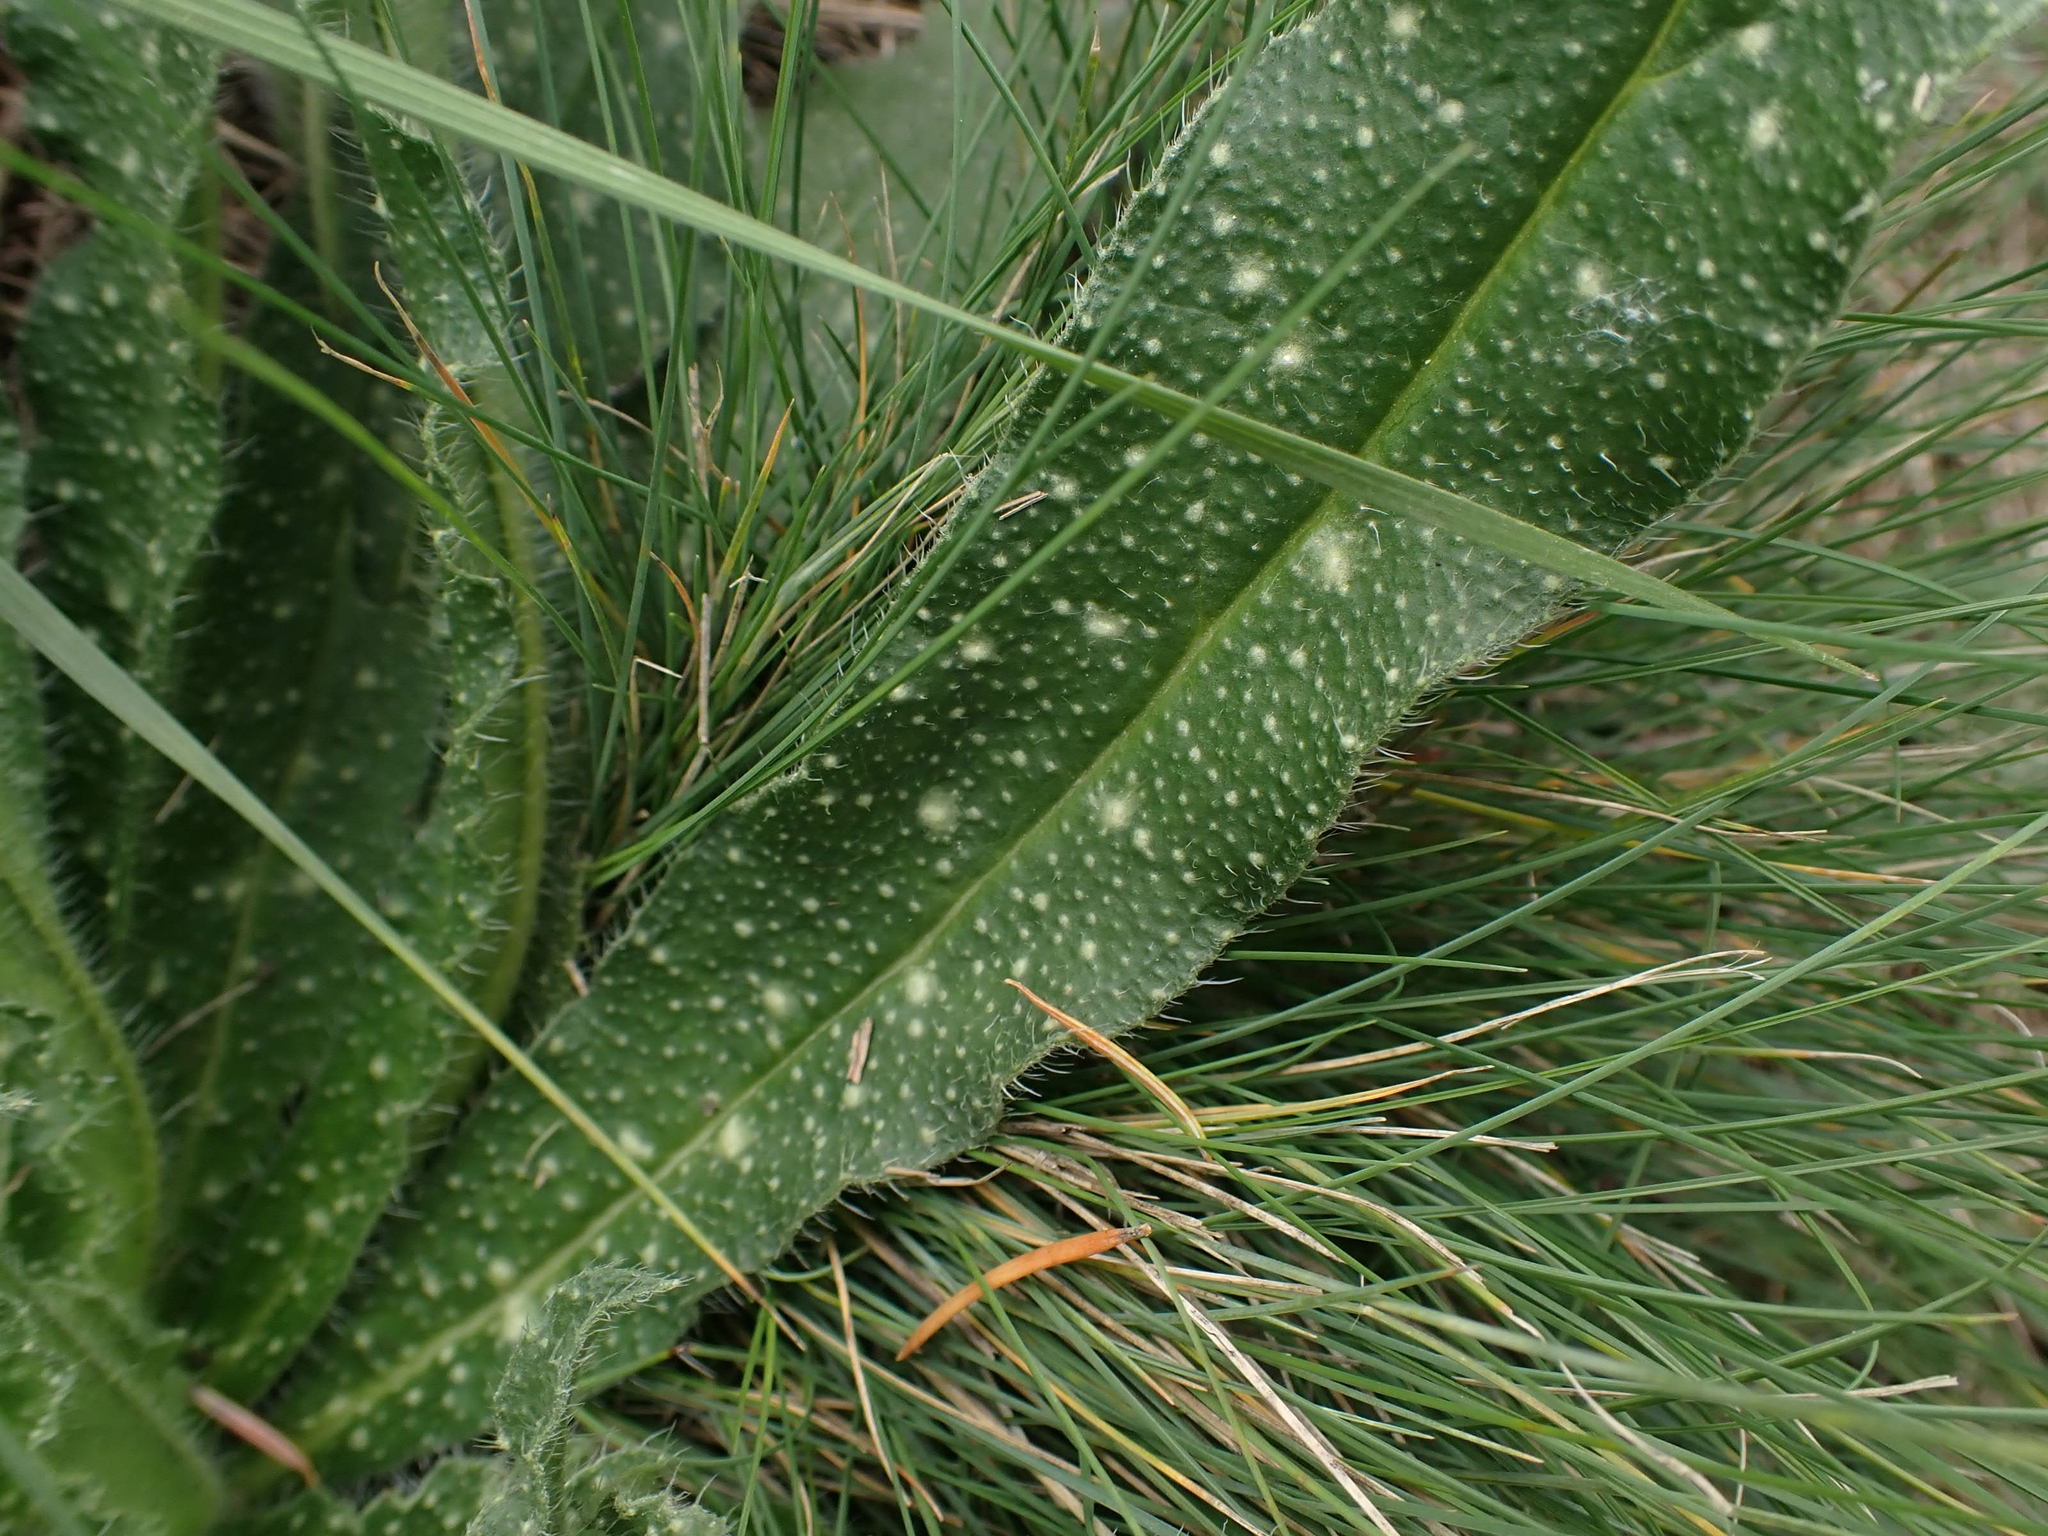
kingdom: Plantae
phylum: Tracheophyta
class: Magnoliopsida
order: Boraginales
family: Boraginaceae
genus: Echium
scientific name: Echium vulgare
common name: Common viper's bugloss
